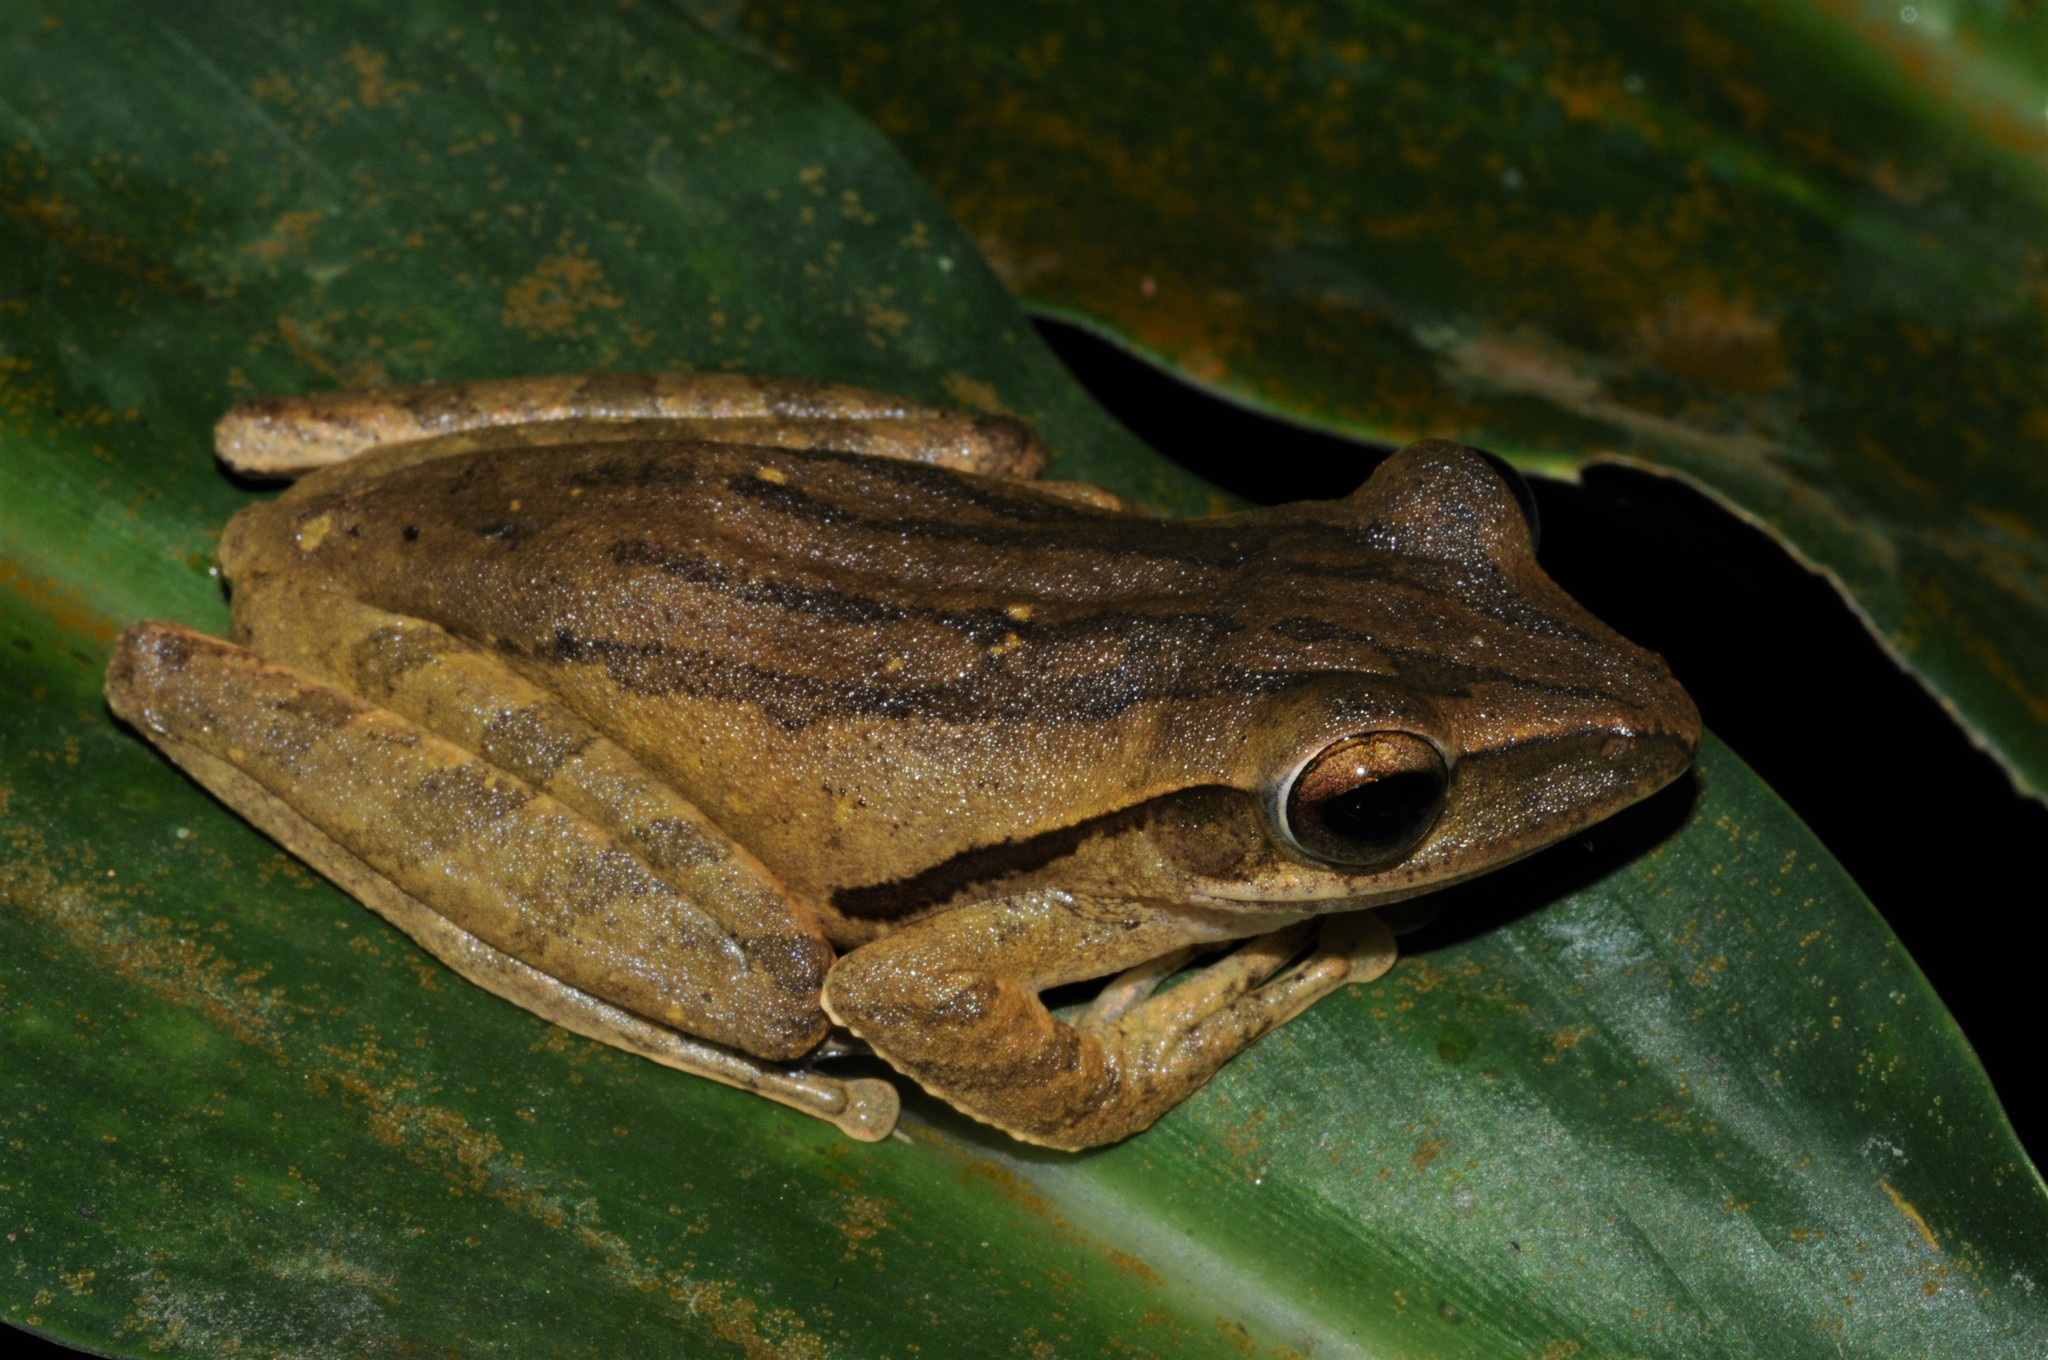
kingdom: Animalia
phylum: Chordata
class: Amphibia
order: Anura
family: Rhacophoridae
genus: Polypedates
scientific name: Polypedates leucomystax
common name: Common tree frog/four-lined tree frog
